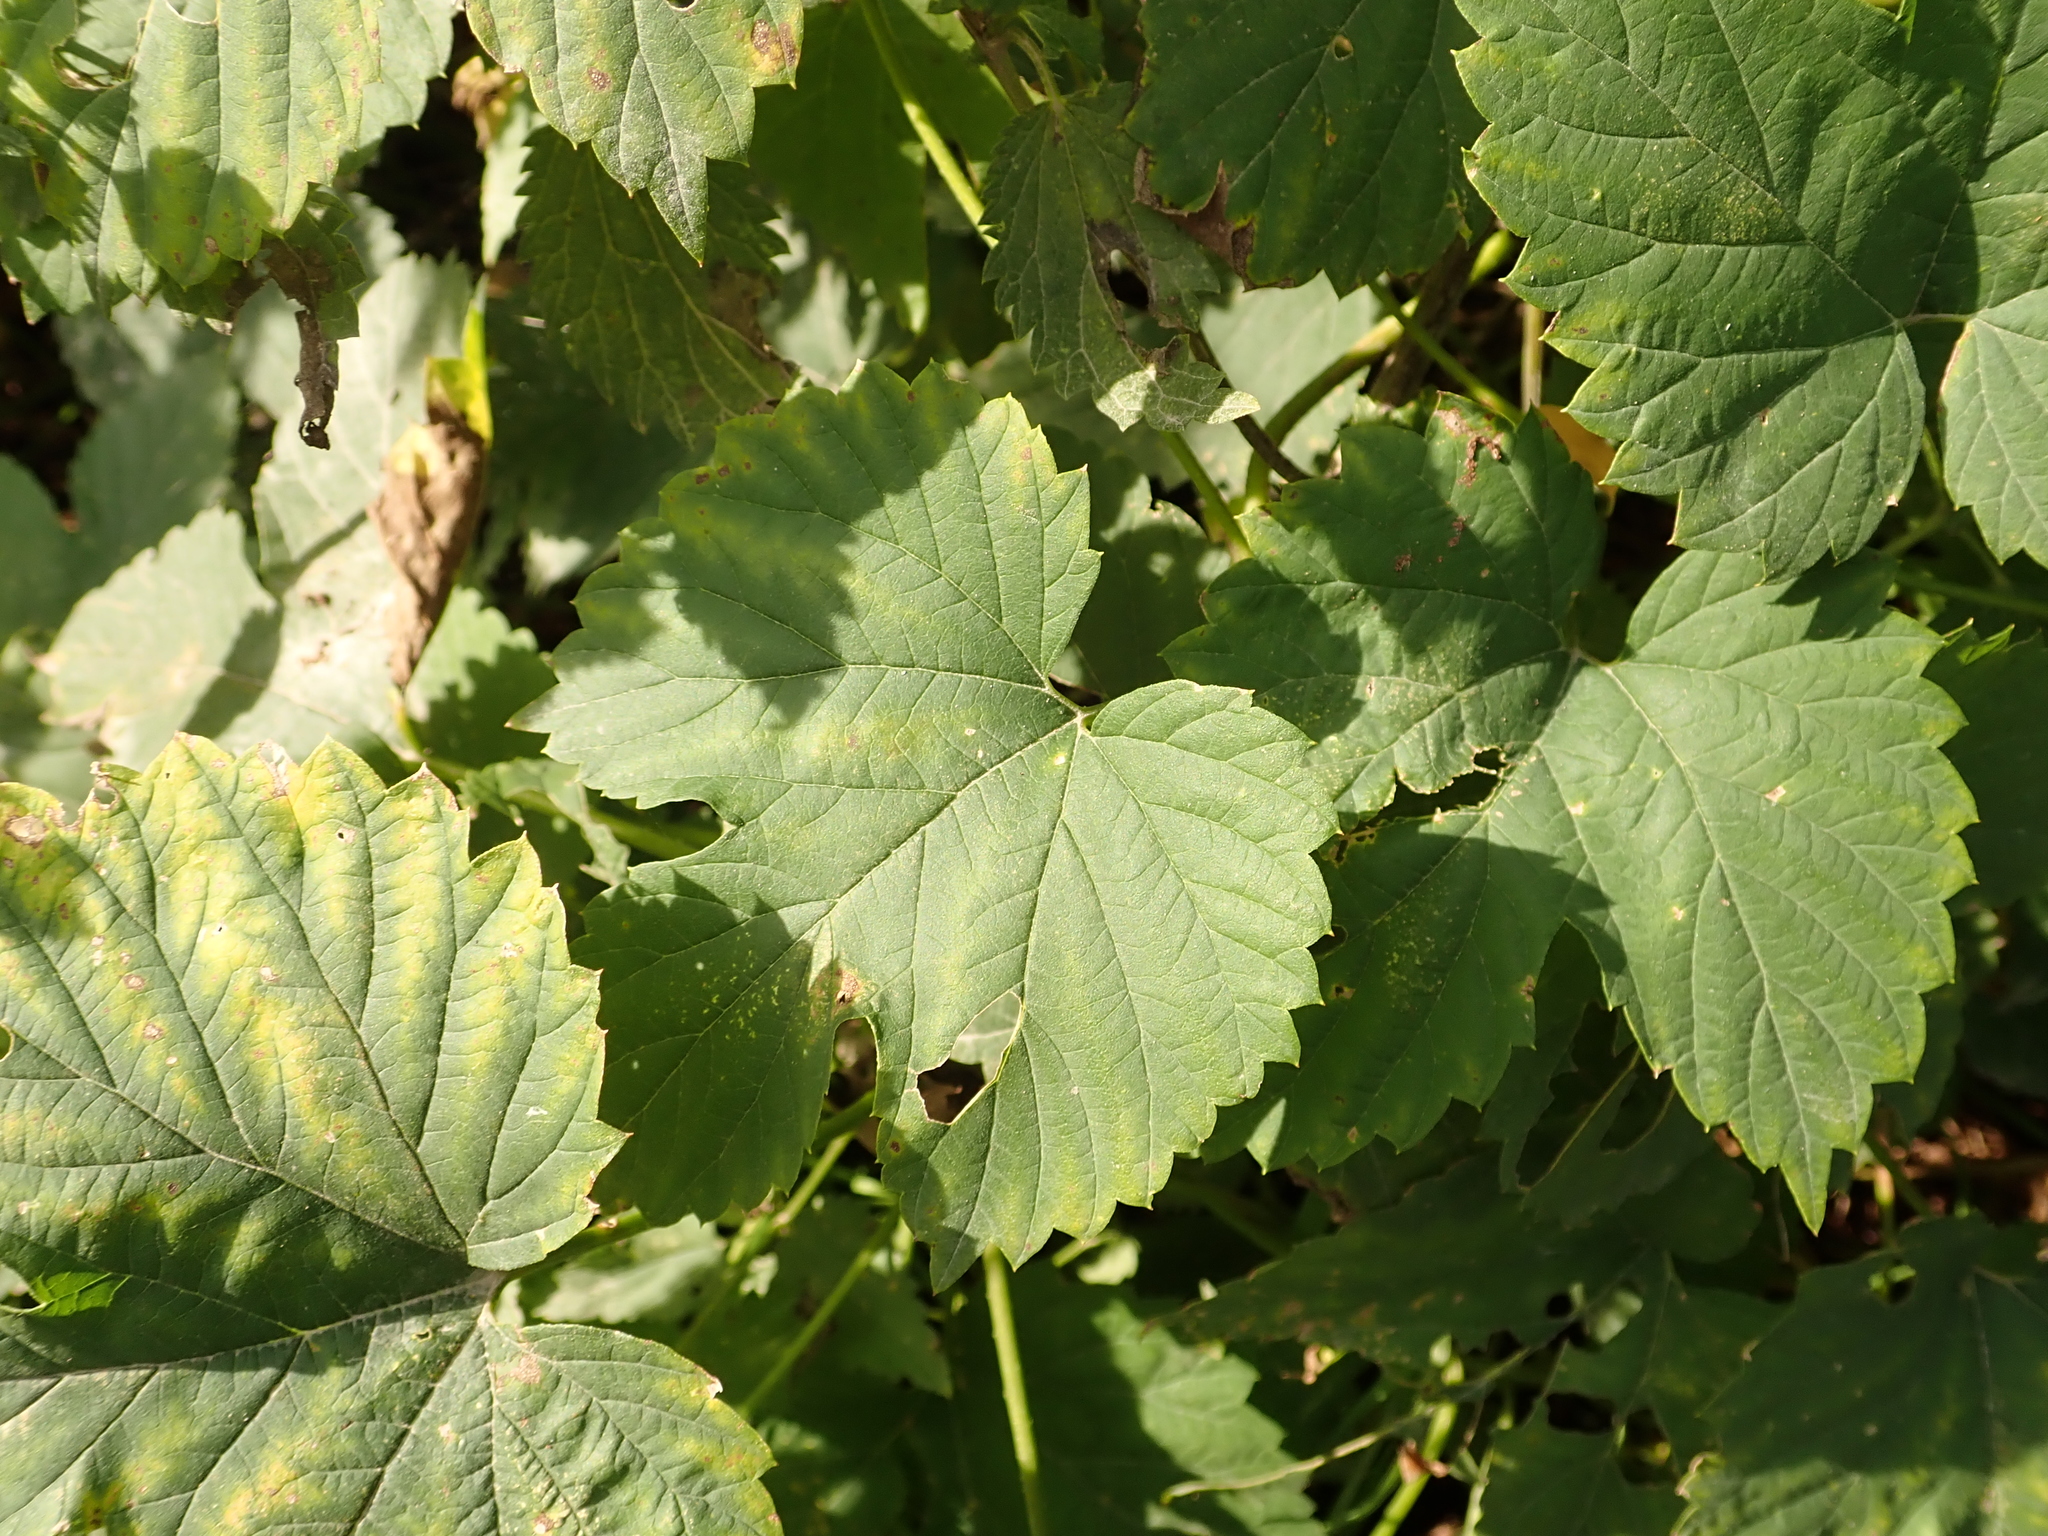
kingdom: Plantae
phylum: Tracheophyta
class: Magnoliopsida
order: Rosales
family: Cannabaceae
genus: Humulus
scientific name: Humulus lupulus
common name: Hop
